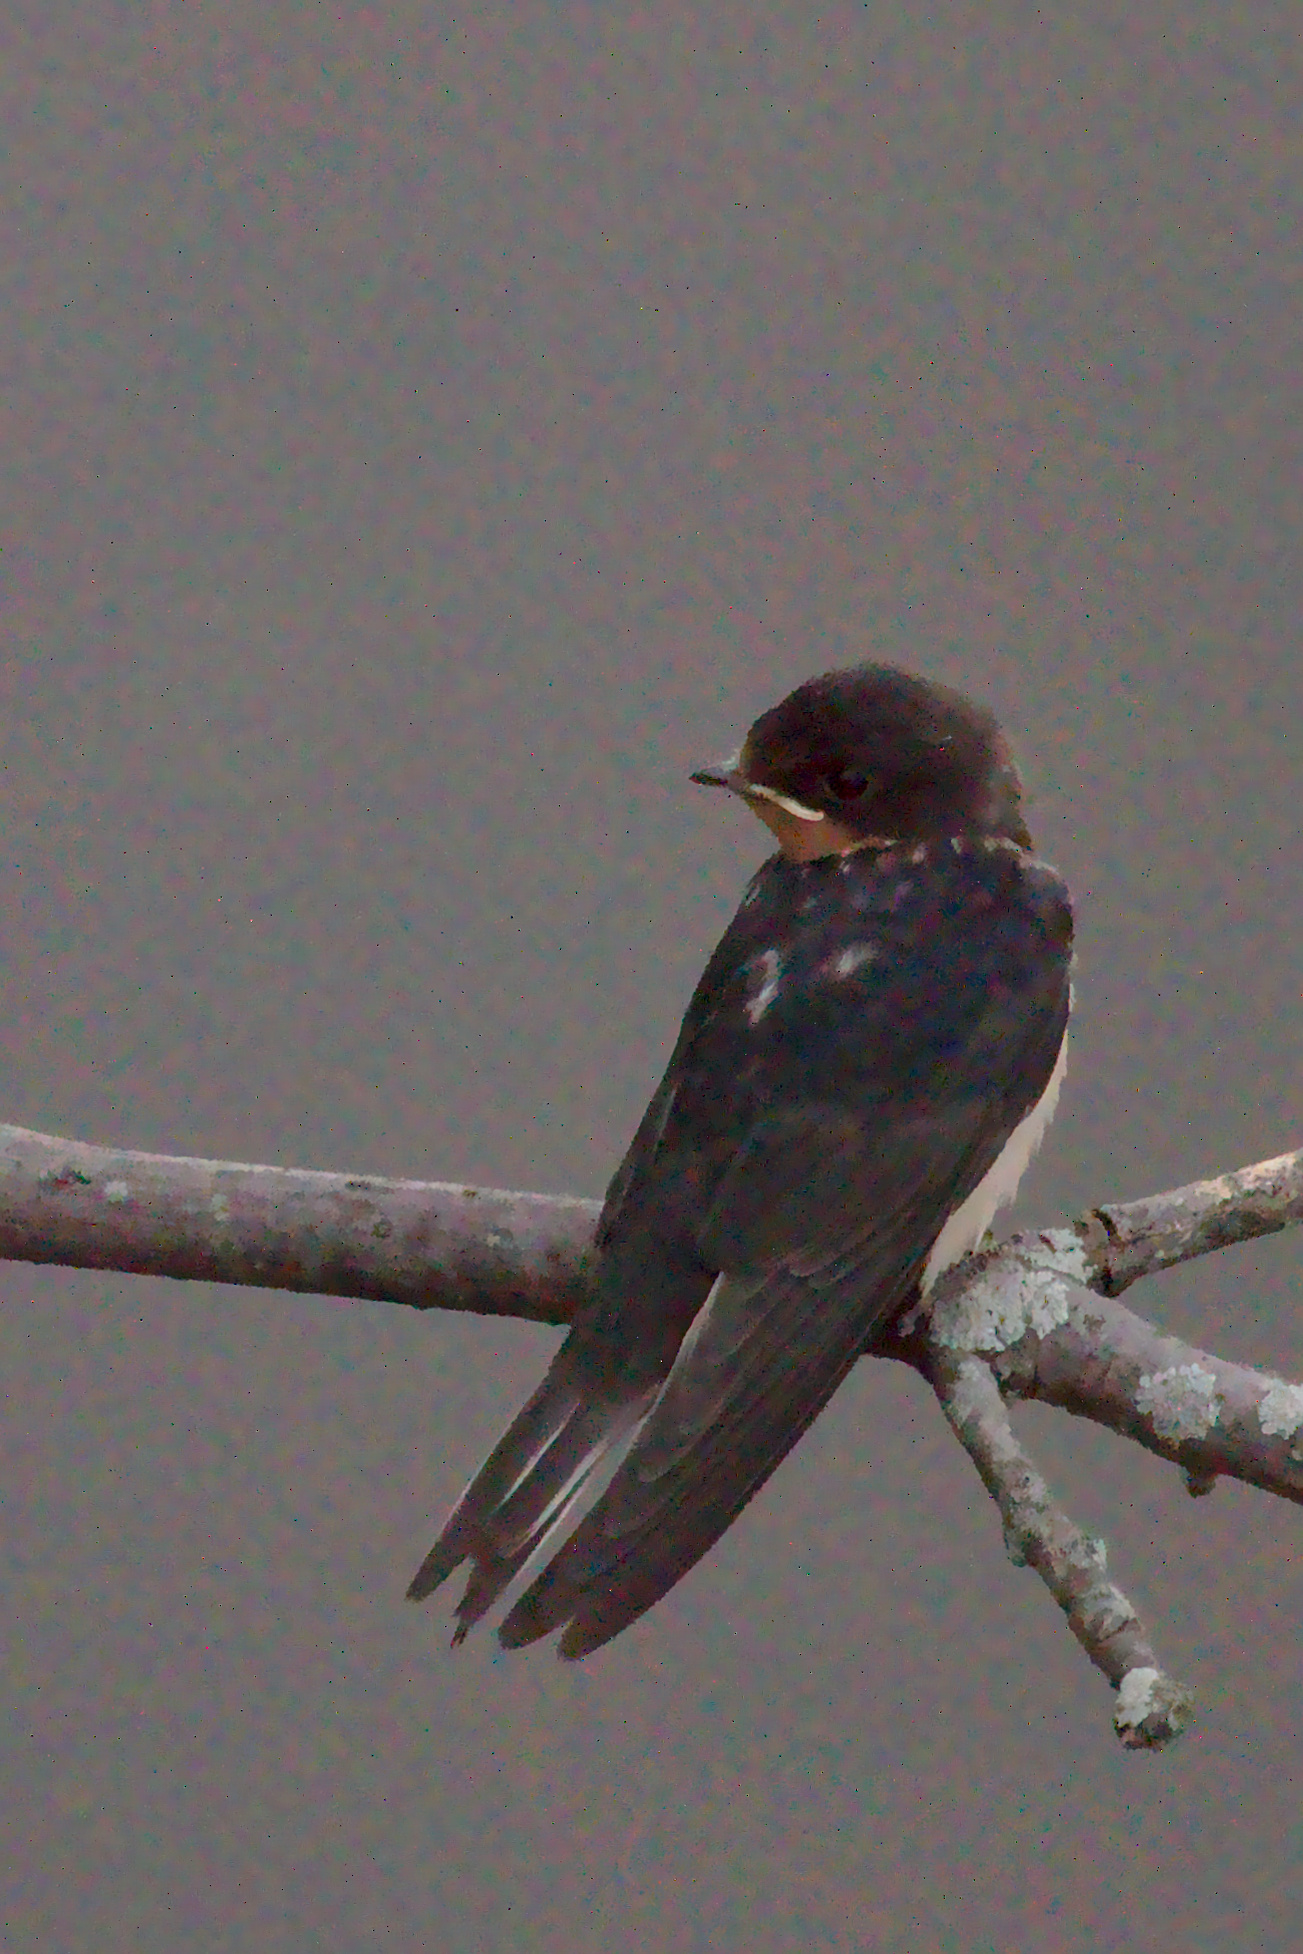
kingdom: Animalia
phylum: Chordata
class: Aves
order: Passeriformes
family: Hirundinidae
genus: Hirundo
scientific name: Hirundo rustica
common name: Barn swallow
